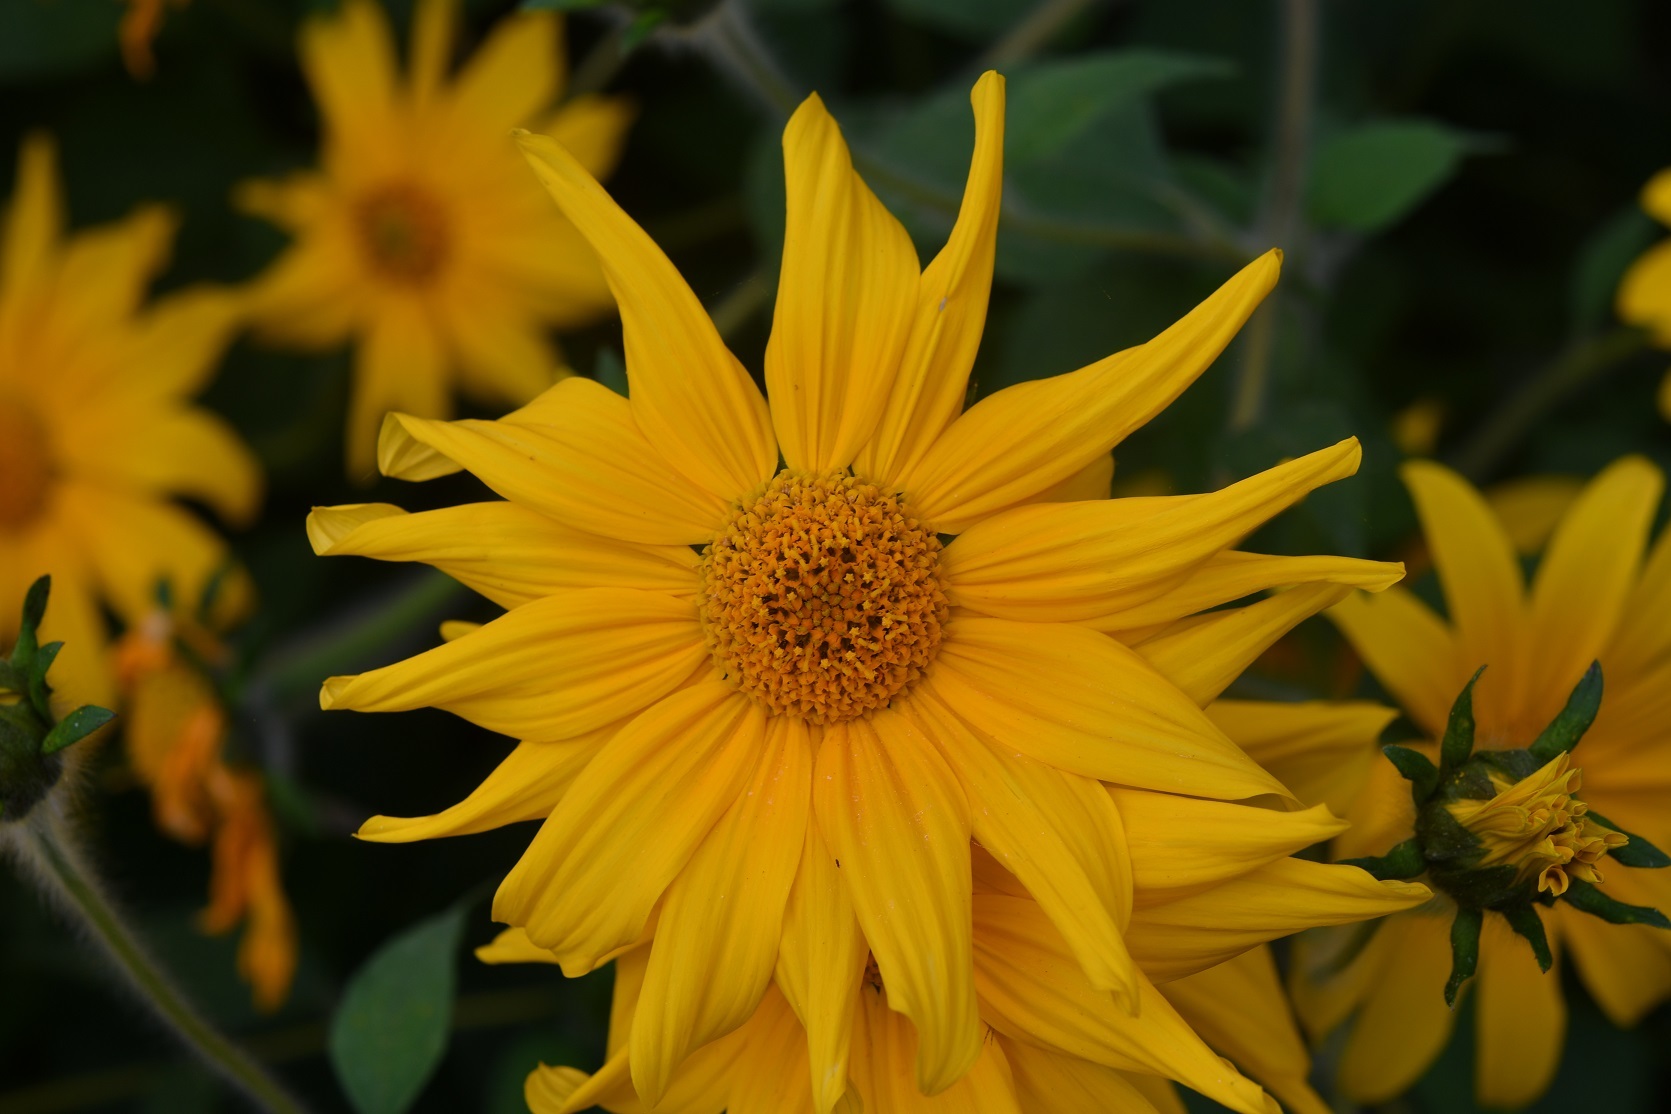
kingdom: Plantae
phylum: Tracheophyta
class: Magnoliopsida
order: Asterales
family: Asteraceae
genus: Tithonia
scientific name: Tithonia tubaeformis
